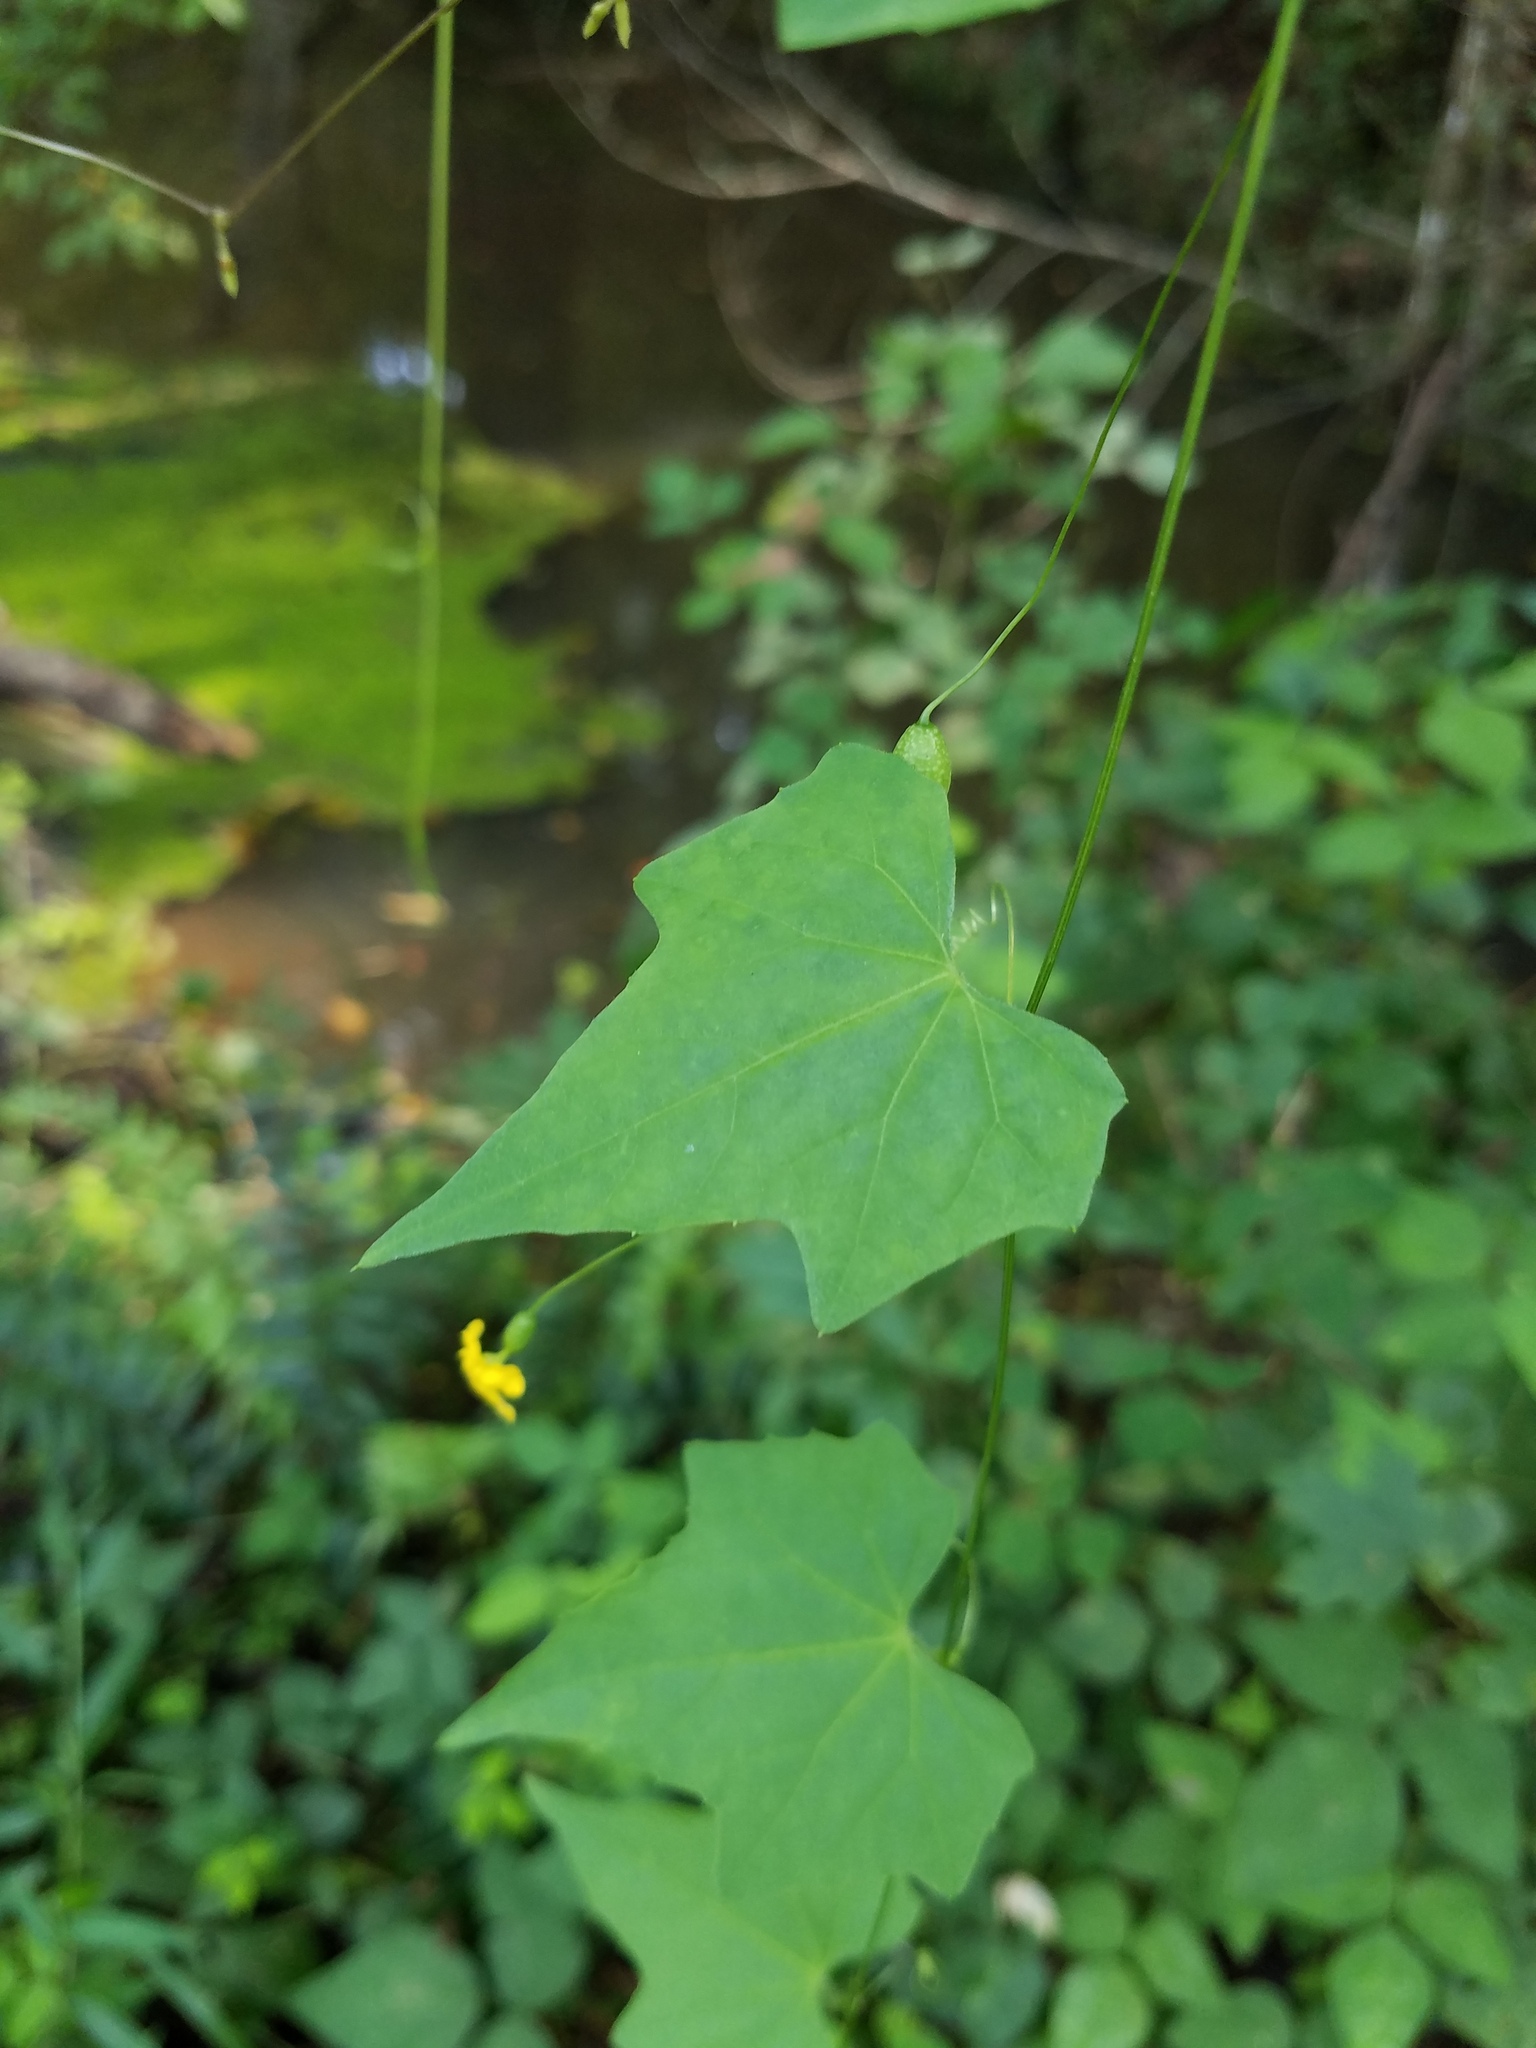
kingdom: Plantae
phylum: Tracheophyta
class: Magnoliopsida
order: Cucurbitales
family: Cucurbitaceae
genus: Melothria
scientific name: Melothria pendula
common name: Creeping-cucumber
